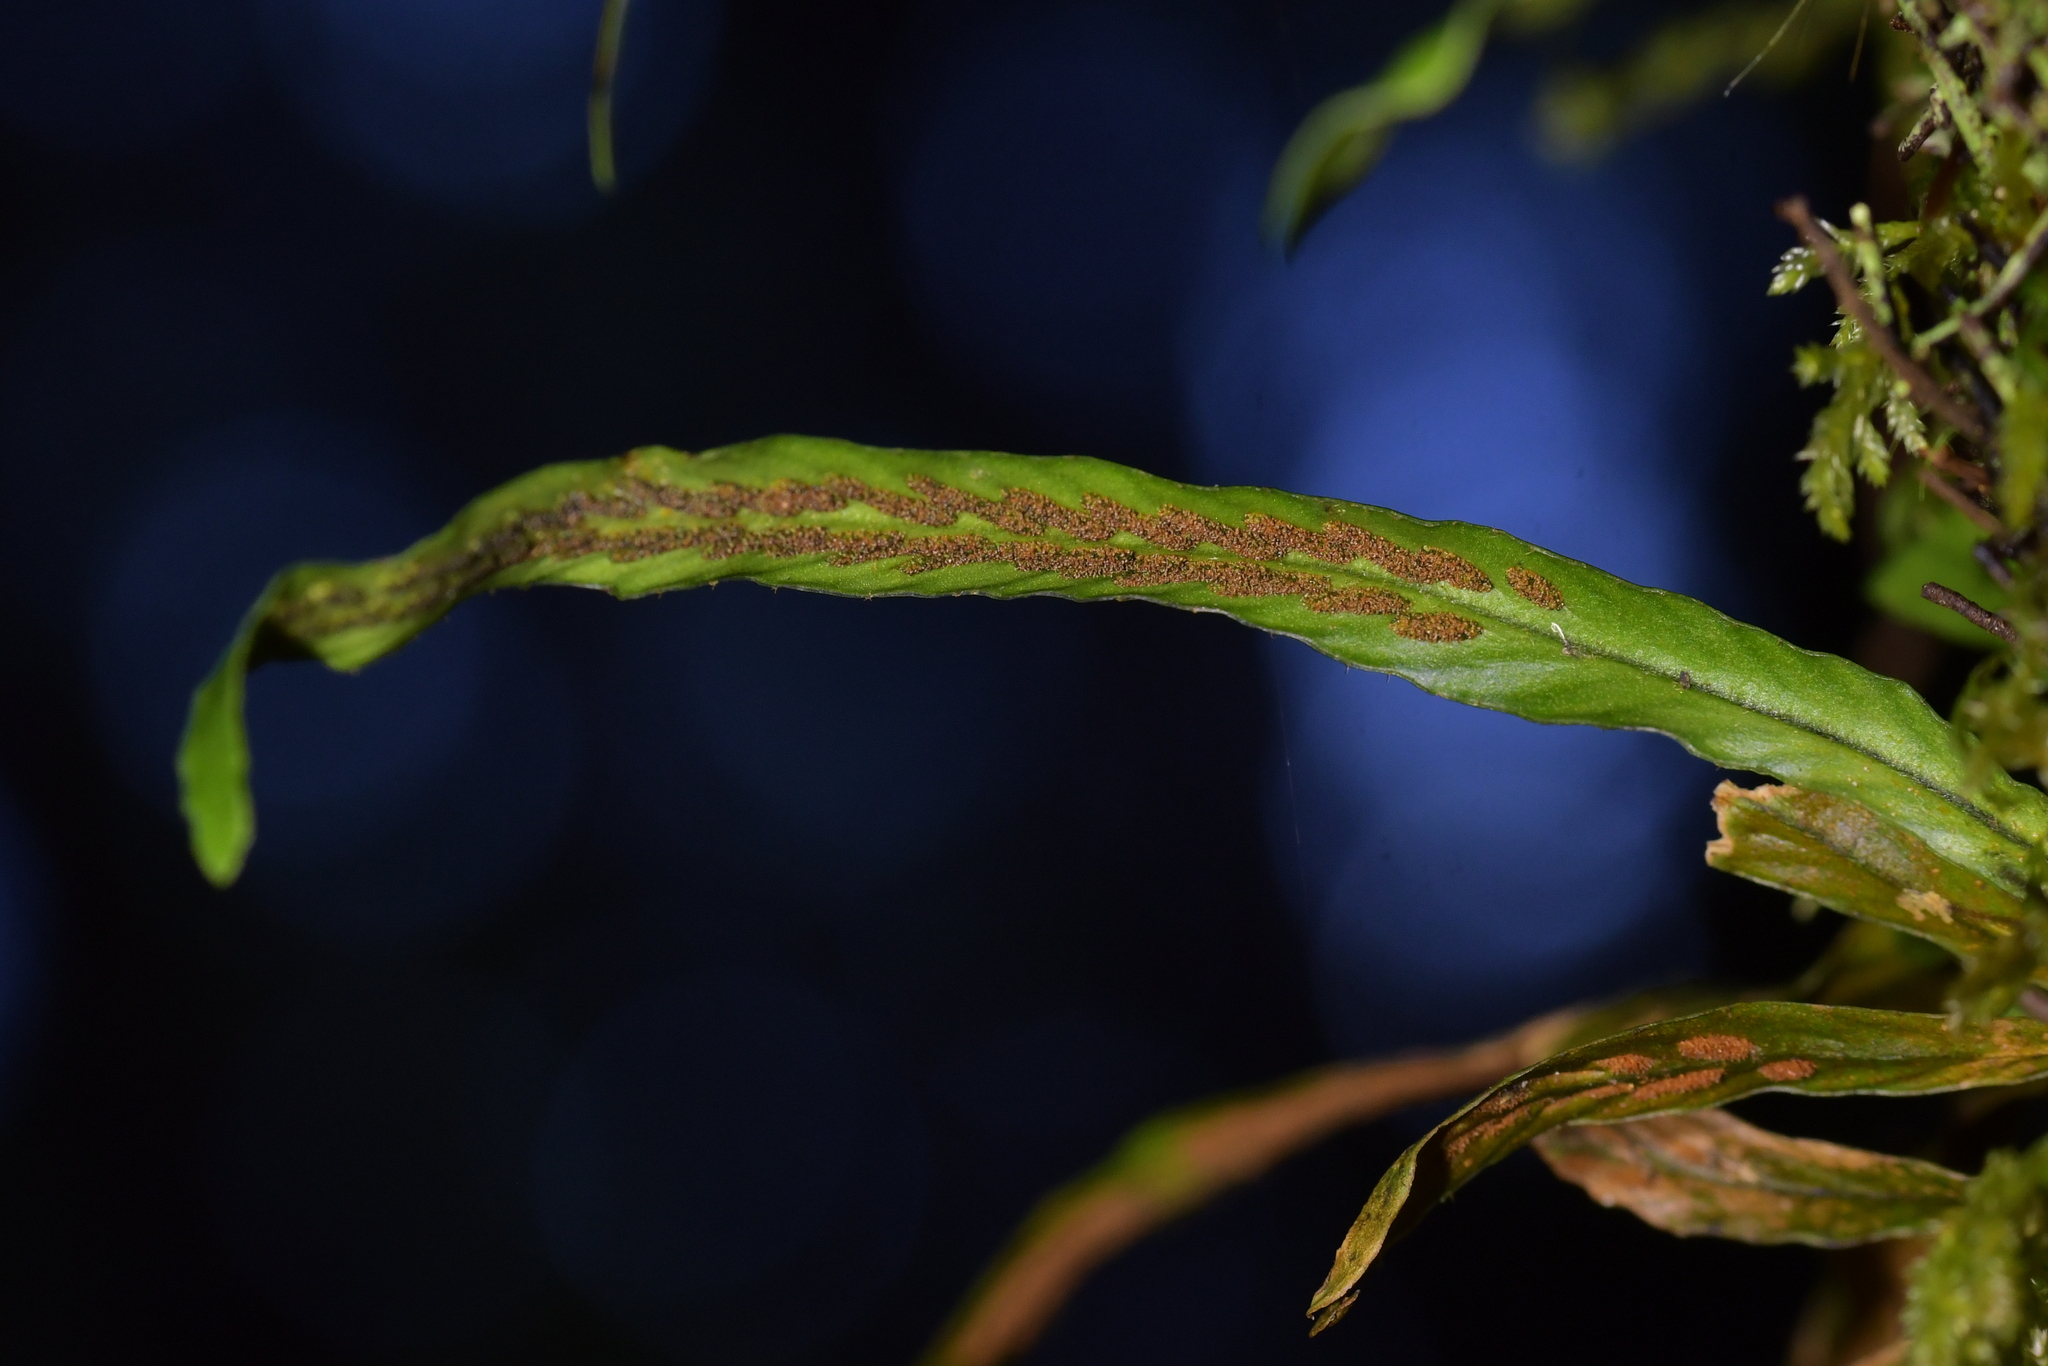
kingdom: Plantae
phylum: Tracheophyta
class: Polypodiopsida
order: Polypodiales
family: Polypodiaceae
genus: Notogrammitis
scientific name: Notogrammitis billardierei
